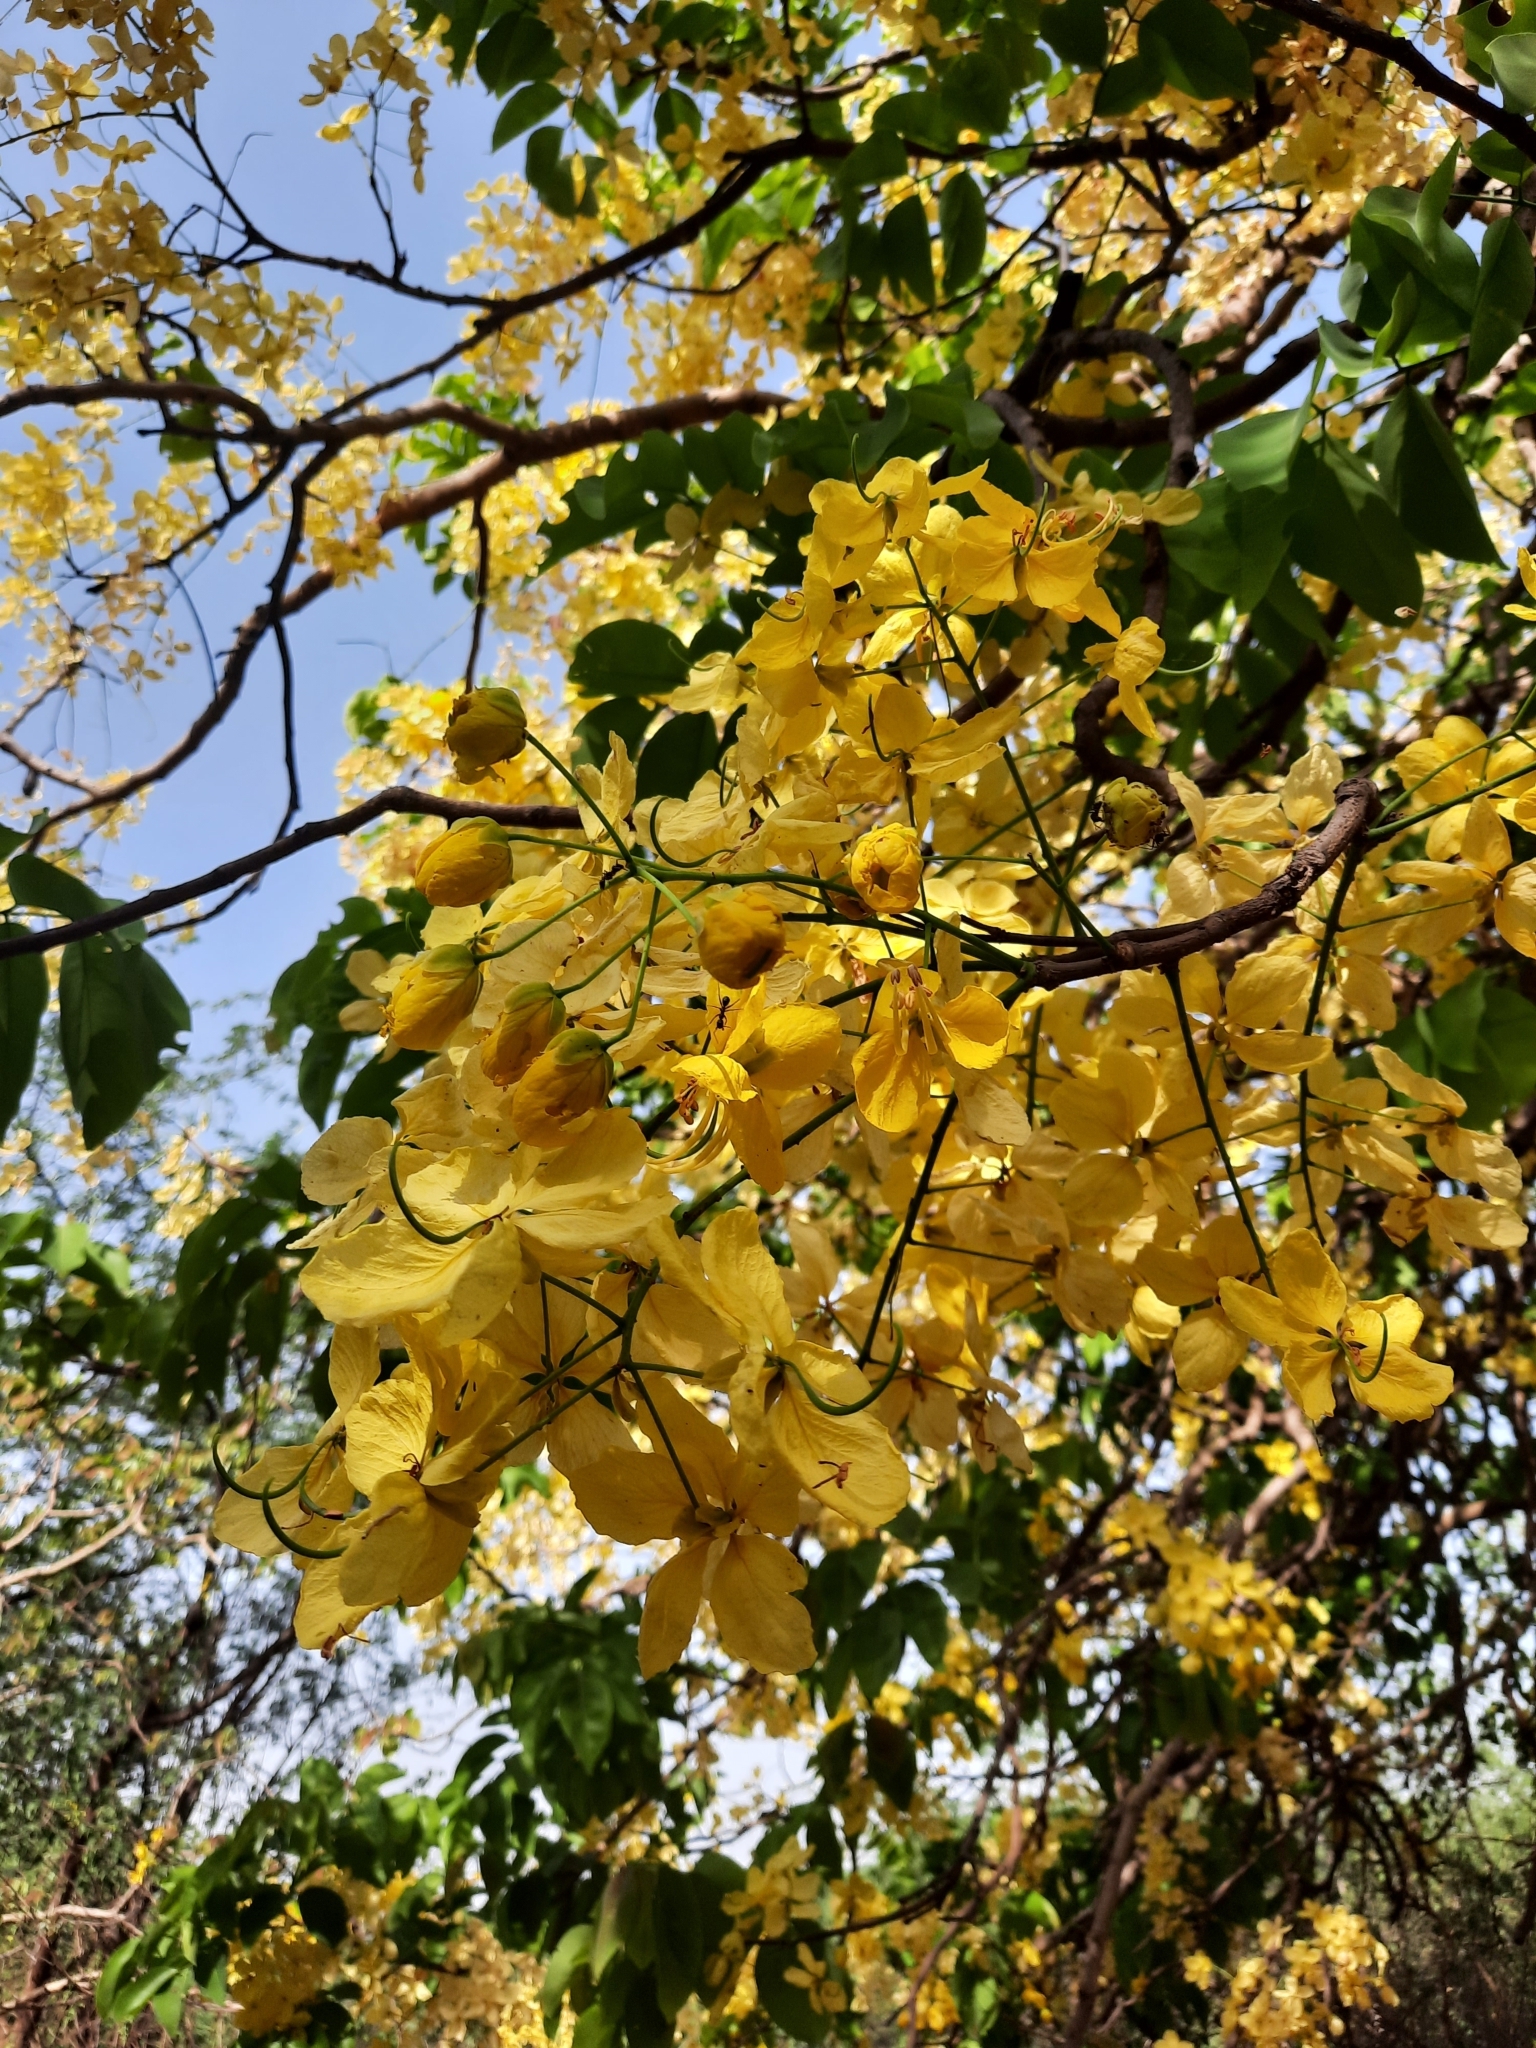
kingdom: Plantae
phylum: Tracheophyta
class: Magnoliopsida
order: Fabales
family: Fabaceae
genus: Cassia
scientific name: Cassia fistula
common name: Golden shower
